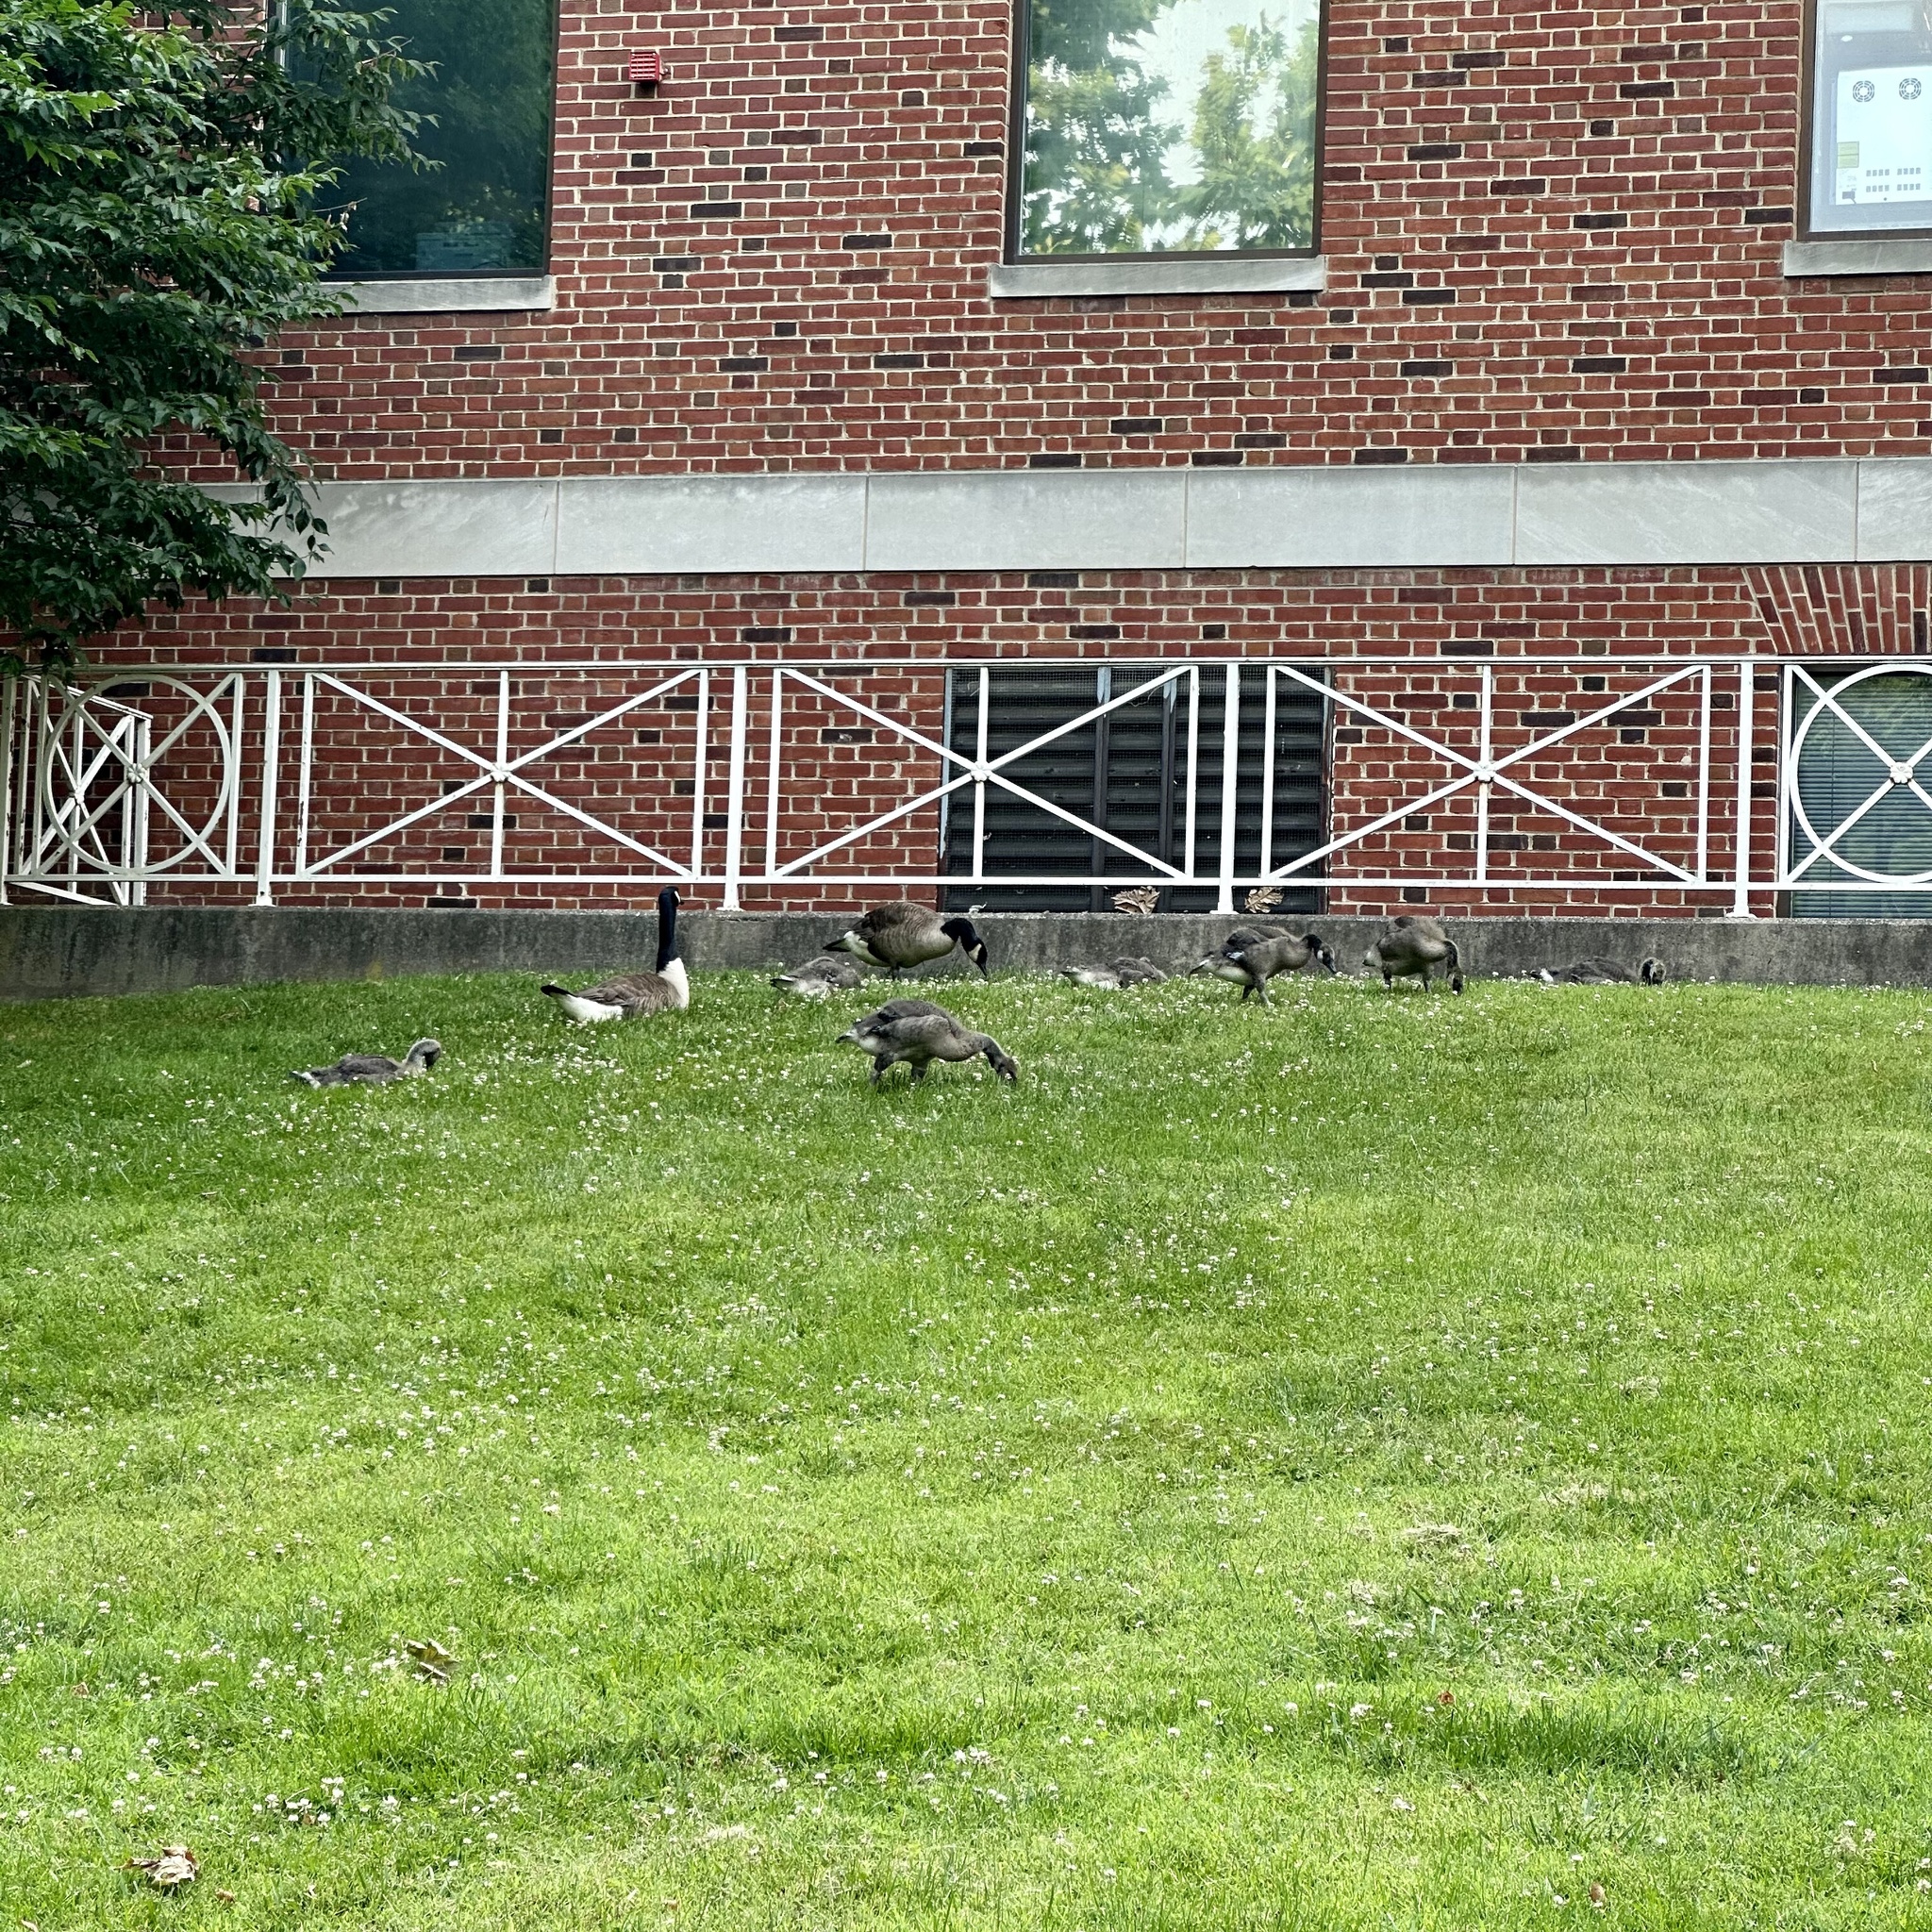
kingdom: Animalia
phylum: Chordata
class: Aves
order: Anseriformes
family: Anatidae
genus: Branta
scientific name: Branta canadensis
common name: Canada goose
